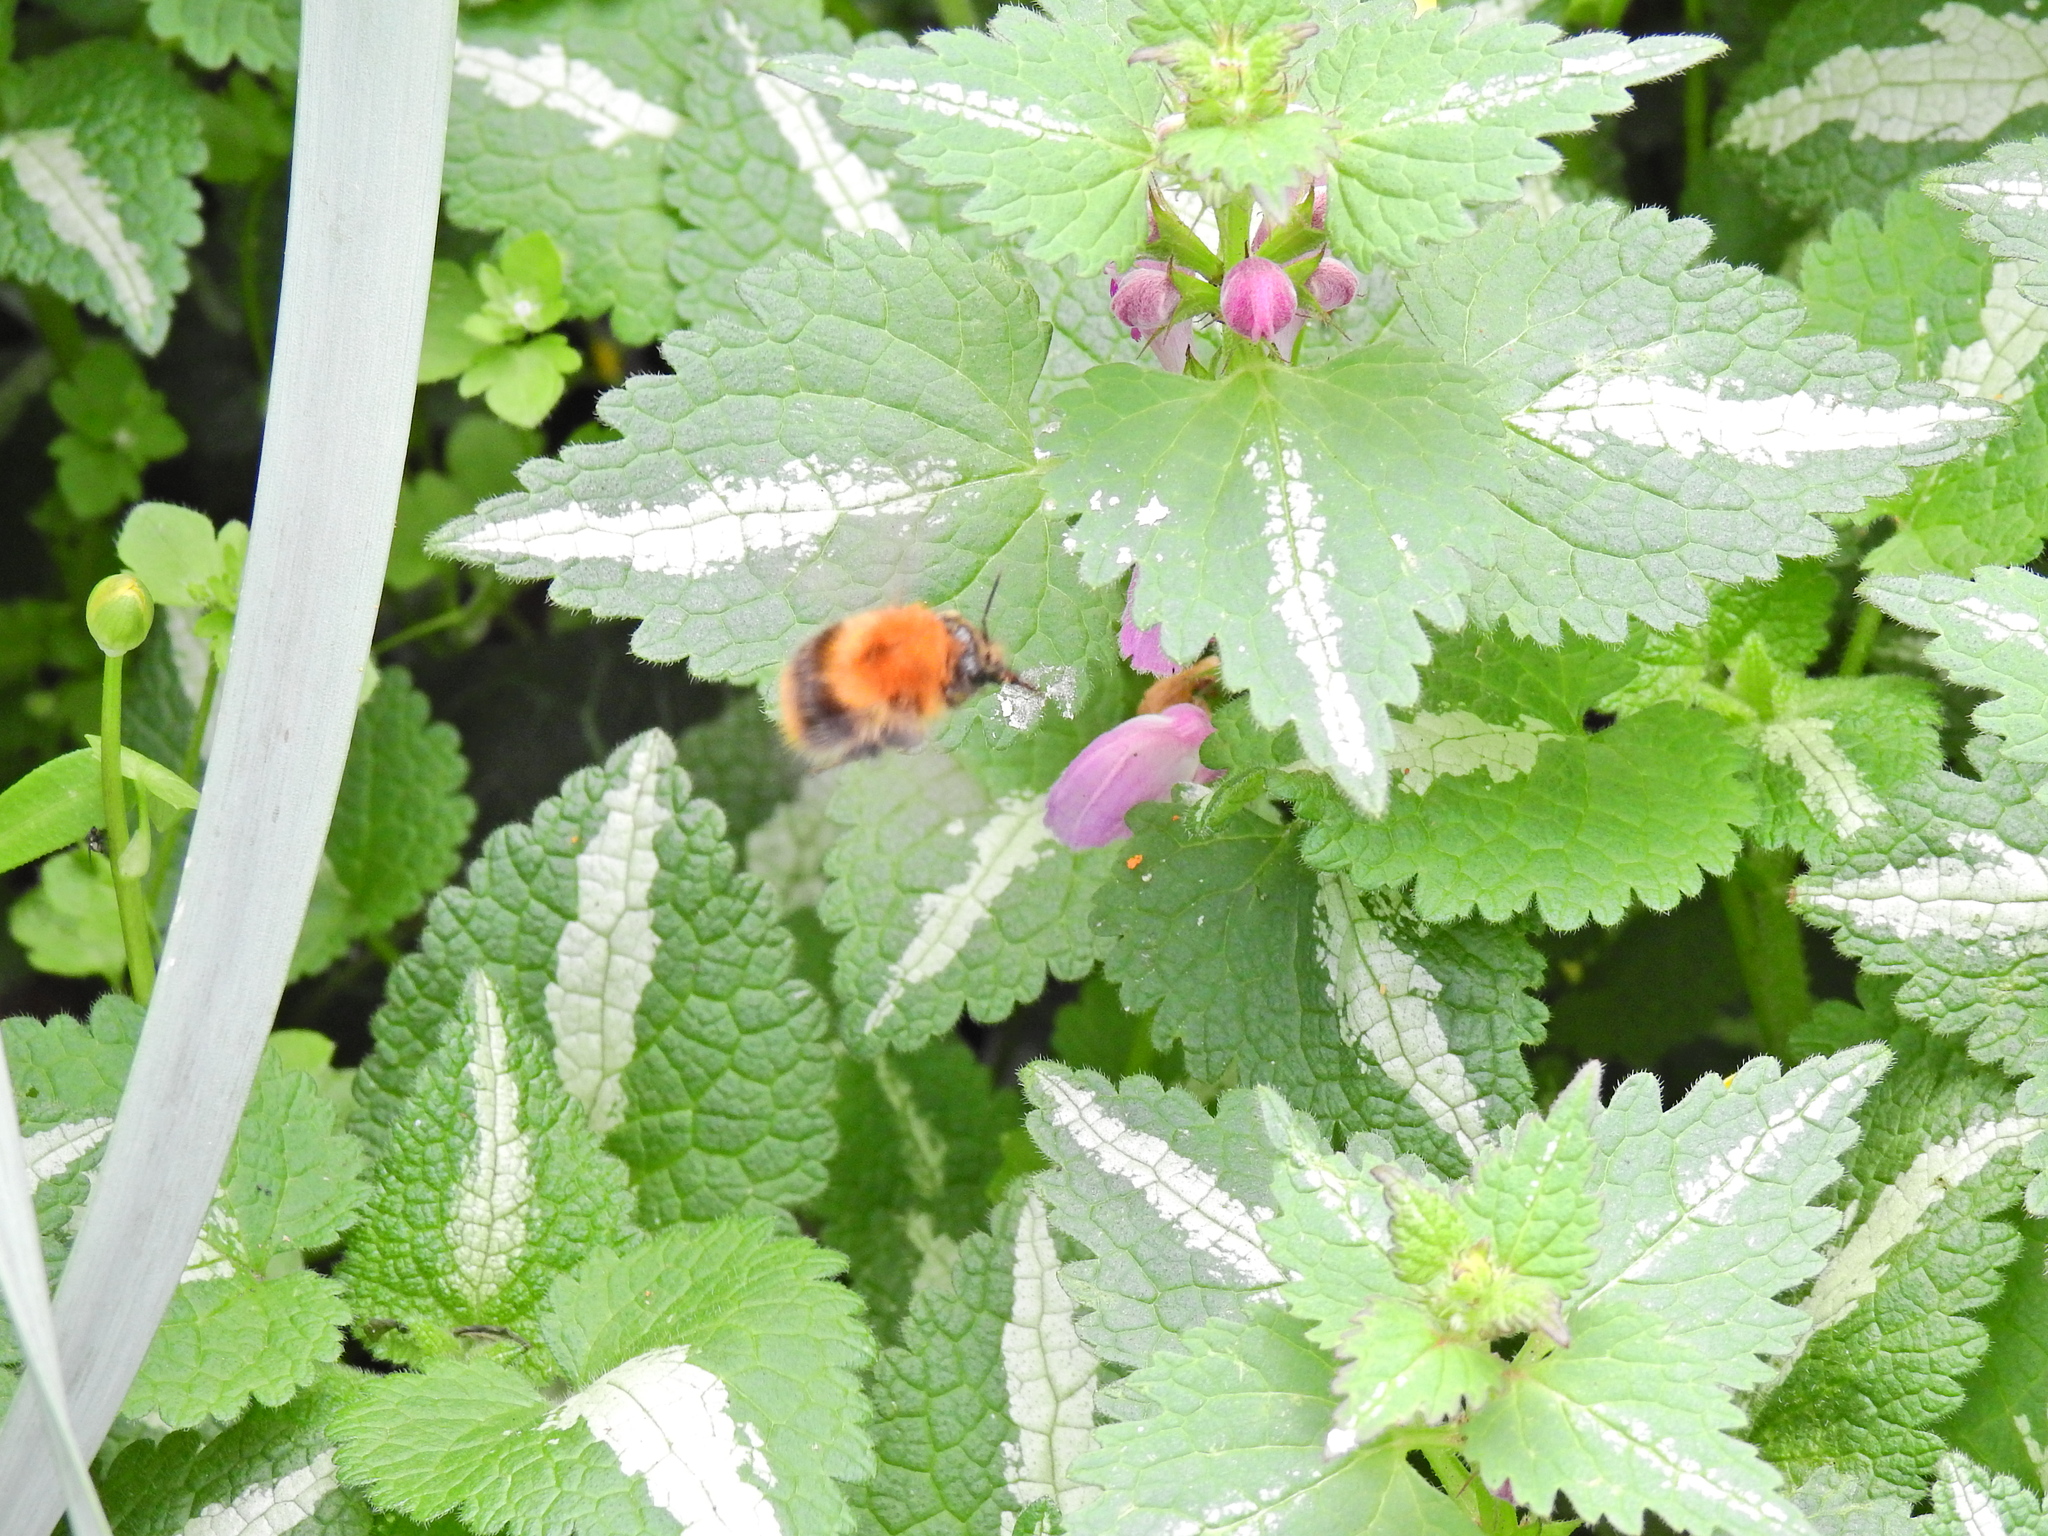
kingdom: Animalia
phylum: Arthropoda
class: Insecta
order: Hymenoptera
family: Apidae
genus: Bombus
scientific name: Bombus pascuorum
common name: Common carder bee
